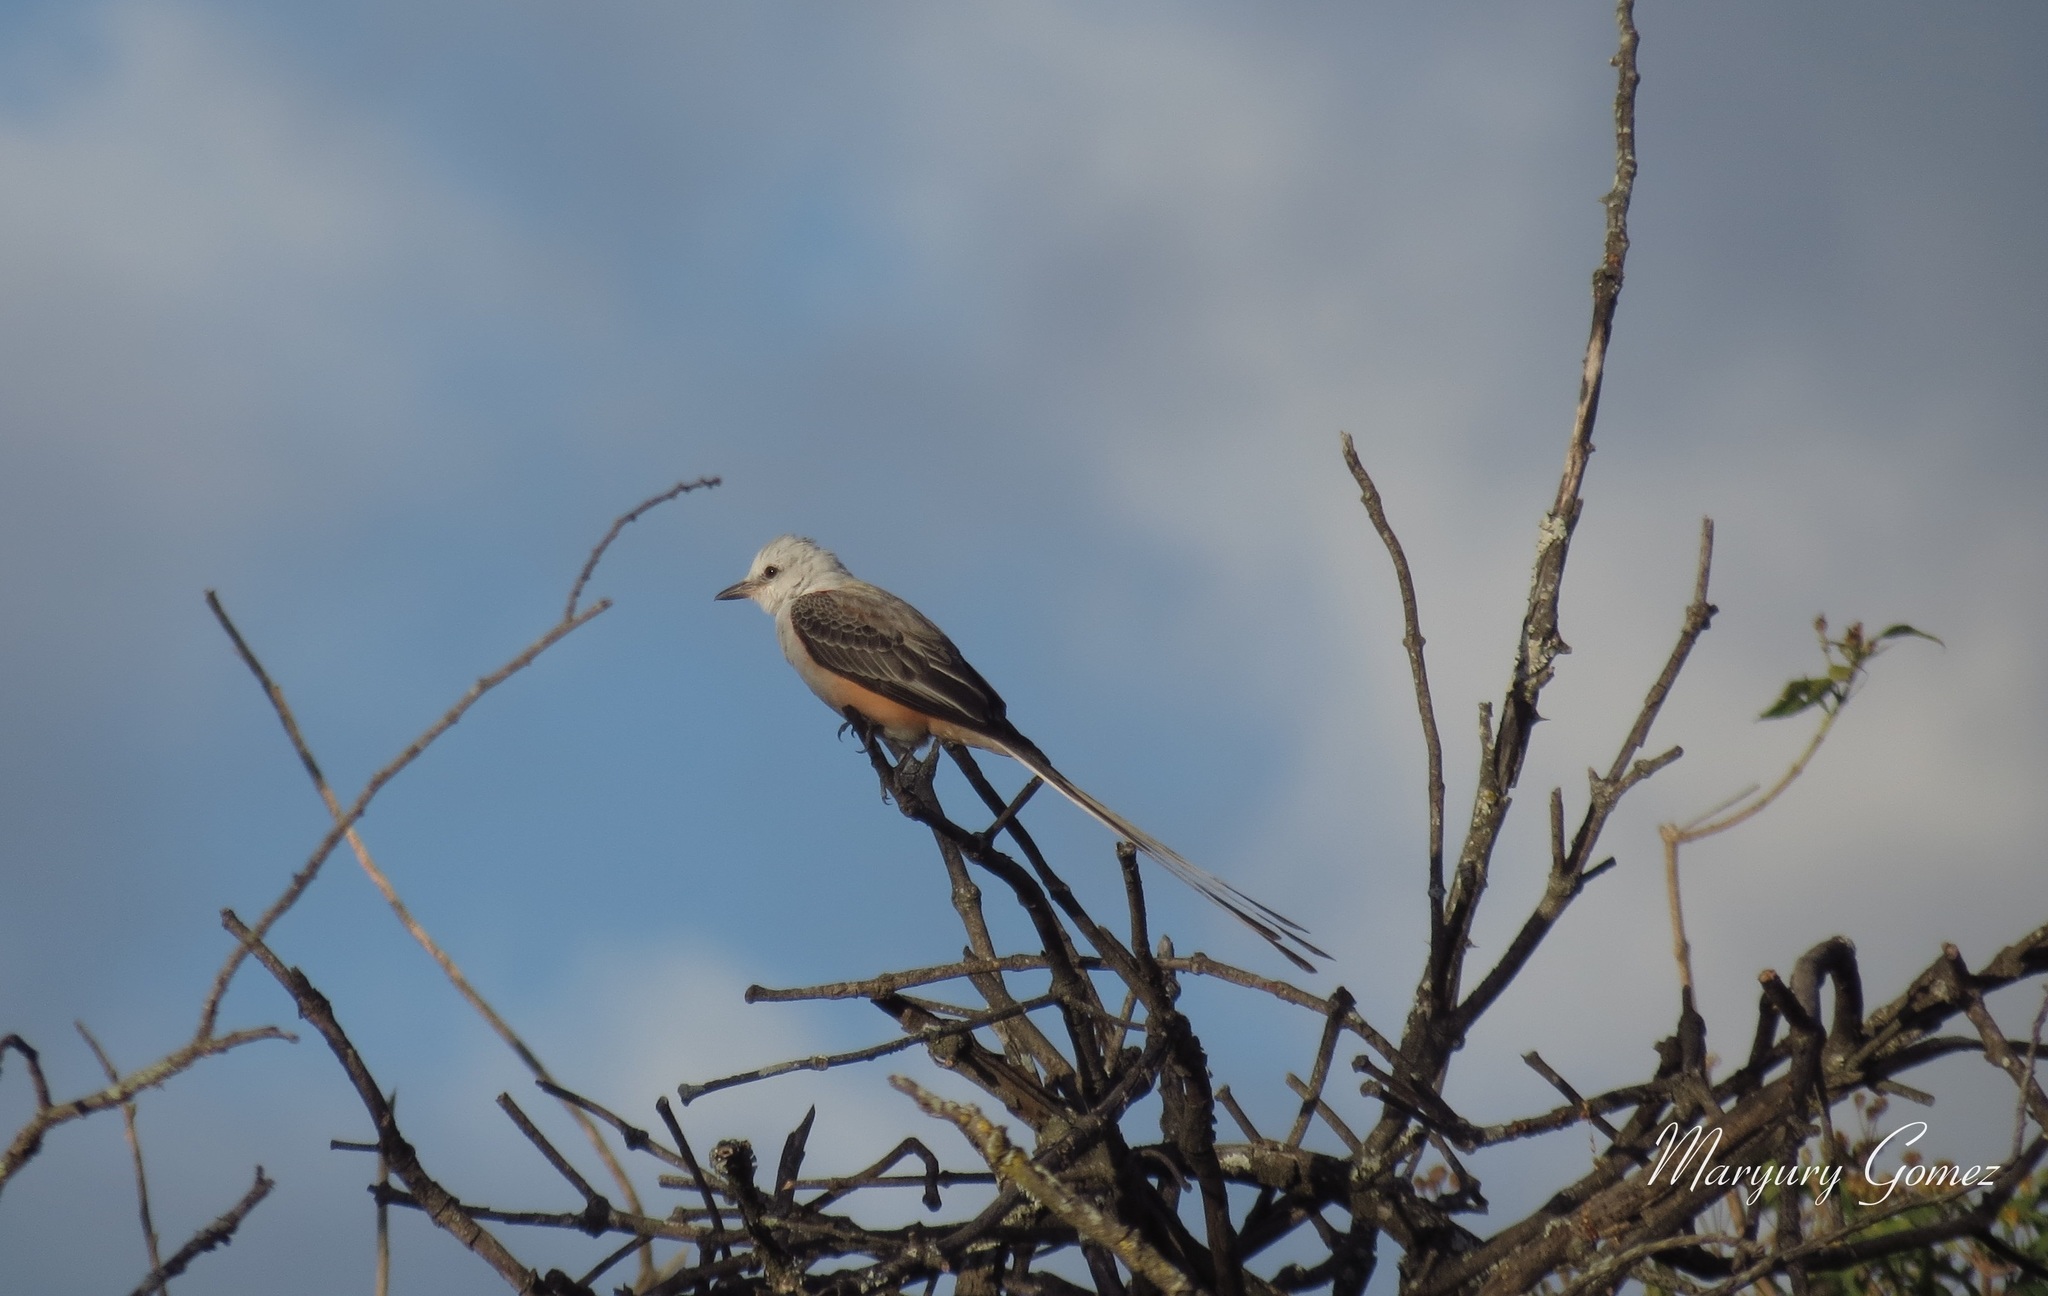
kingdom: Animalia
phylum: Chordata
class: Aves
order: Passeriformes
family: Tyrannidae
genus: Tyrannus
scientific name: Tyrannus forficatus
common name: Scissor-tailed flycatcher
